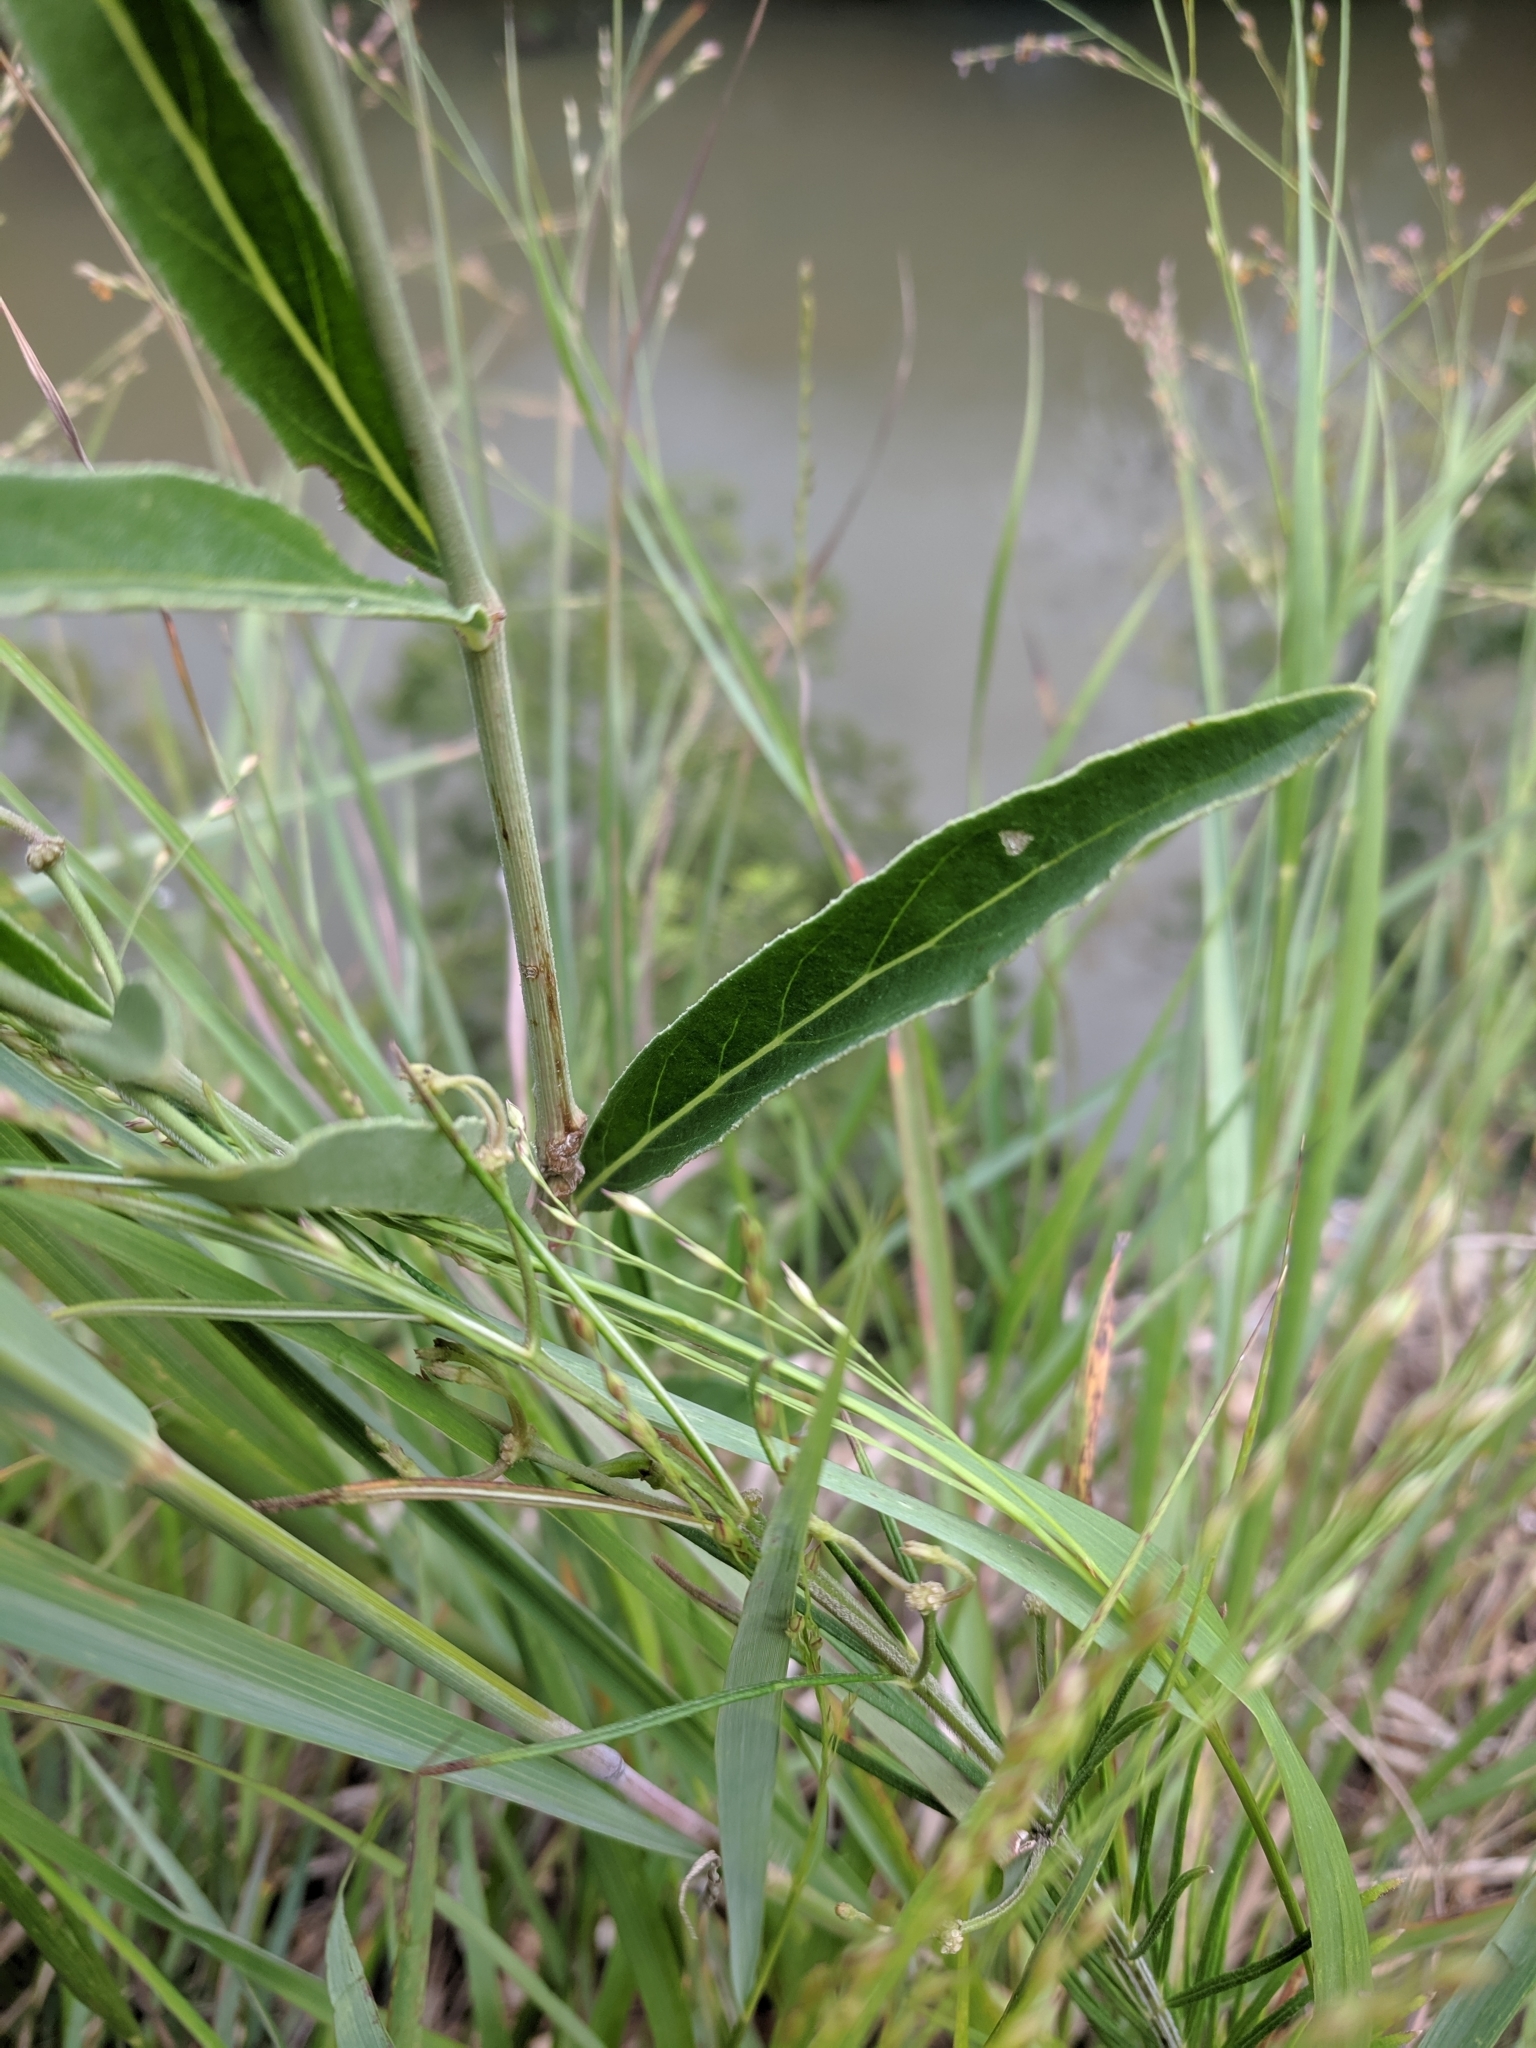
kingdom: Plantae
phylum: Tracheophyta
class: Magnoliopsida
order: Caryophyllales
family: Nyctaginaceae
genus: Mirabilis
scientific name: Mirabilis albida
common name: Hairy four-o'clock
